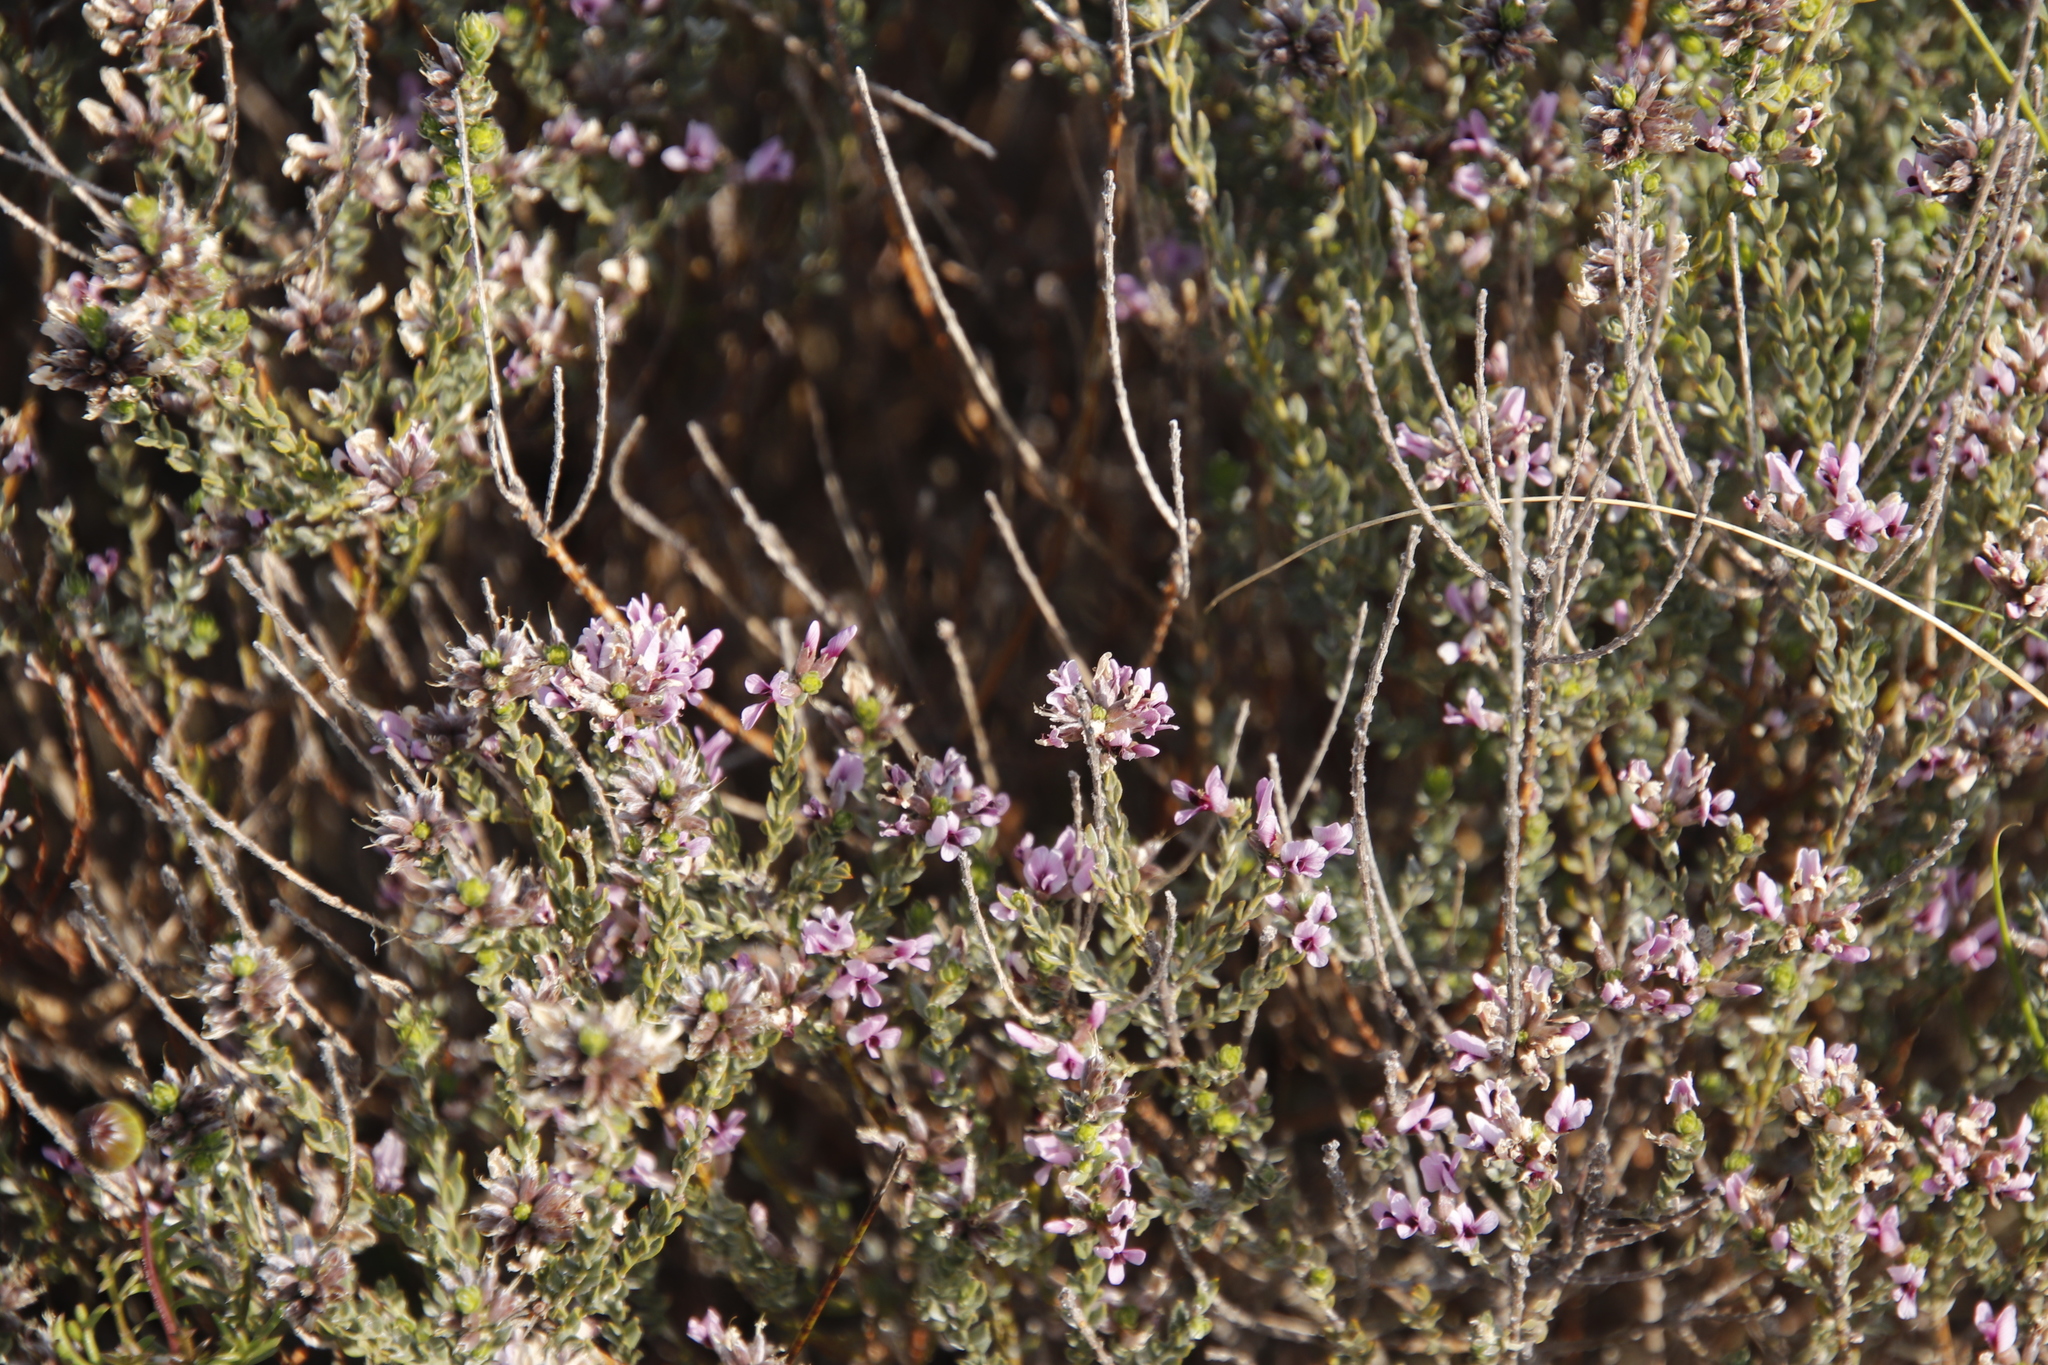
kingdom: Plantae
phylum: Tracheophyta
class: Magnoliopsida
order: Fabales
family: Fabaceae
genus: Amphithalea
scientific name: Amphithalea ericifolia
